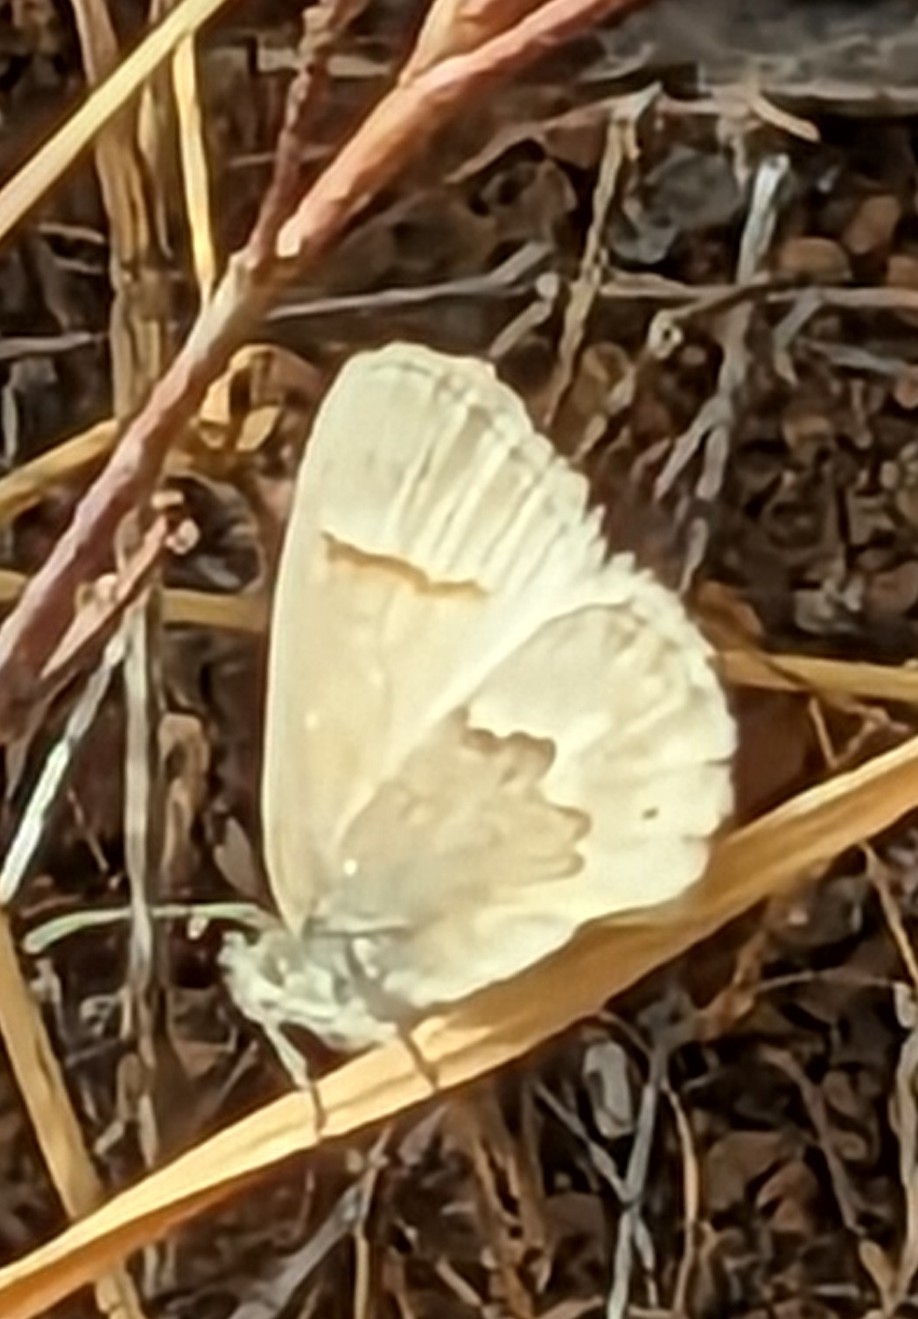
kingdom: Animalia
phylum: Arthropoda
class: Insecta
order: Lepidoptera
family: Nymphalidae
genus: Coenonympha
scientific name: Coenonympha california
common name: Common ringlet
